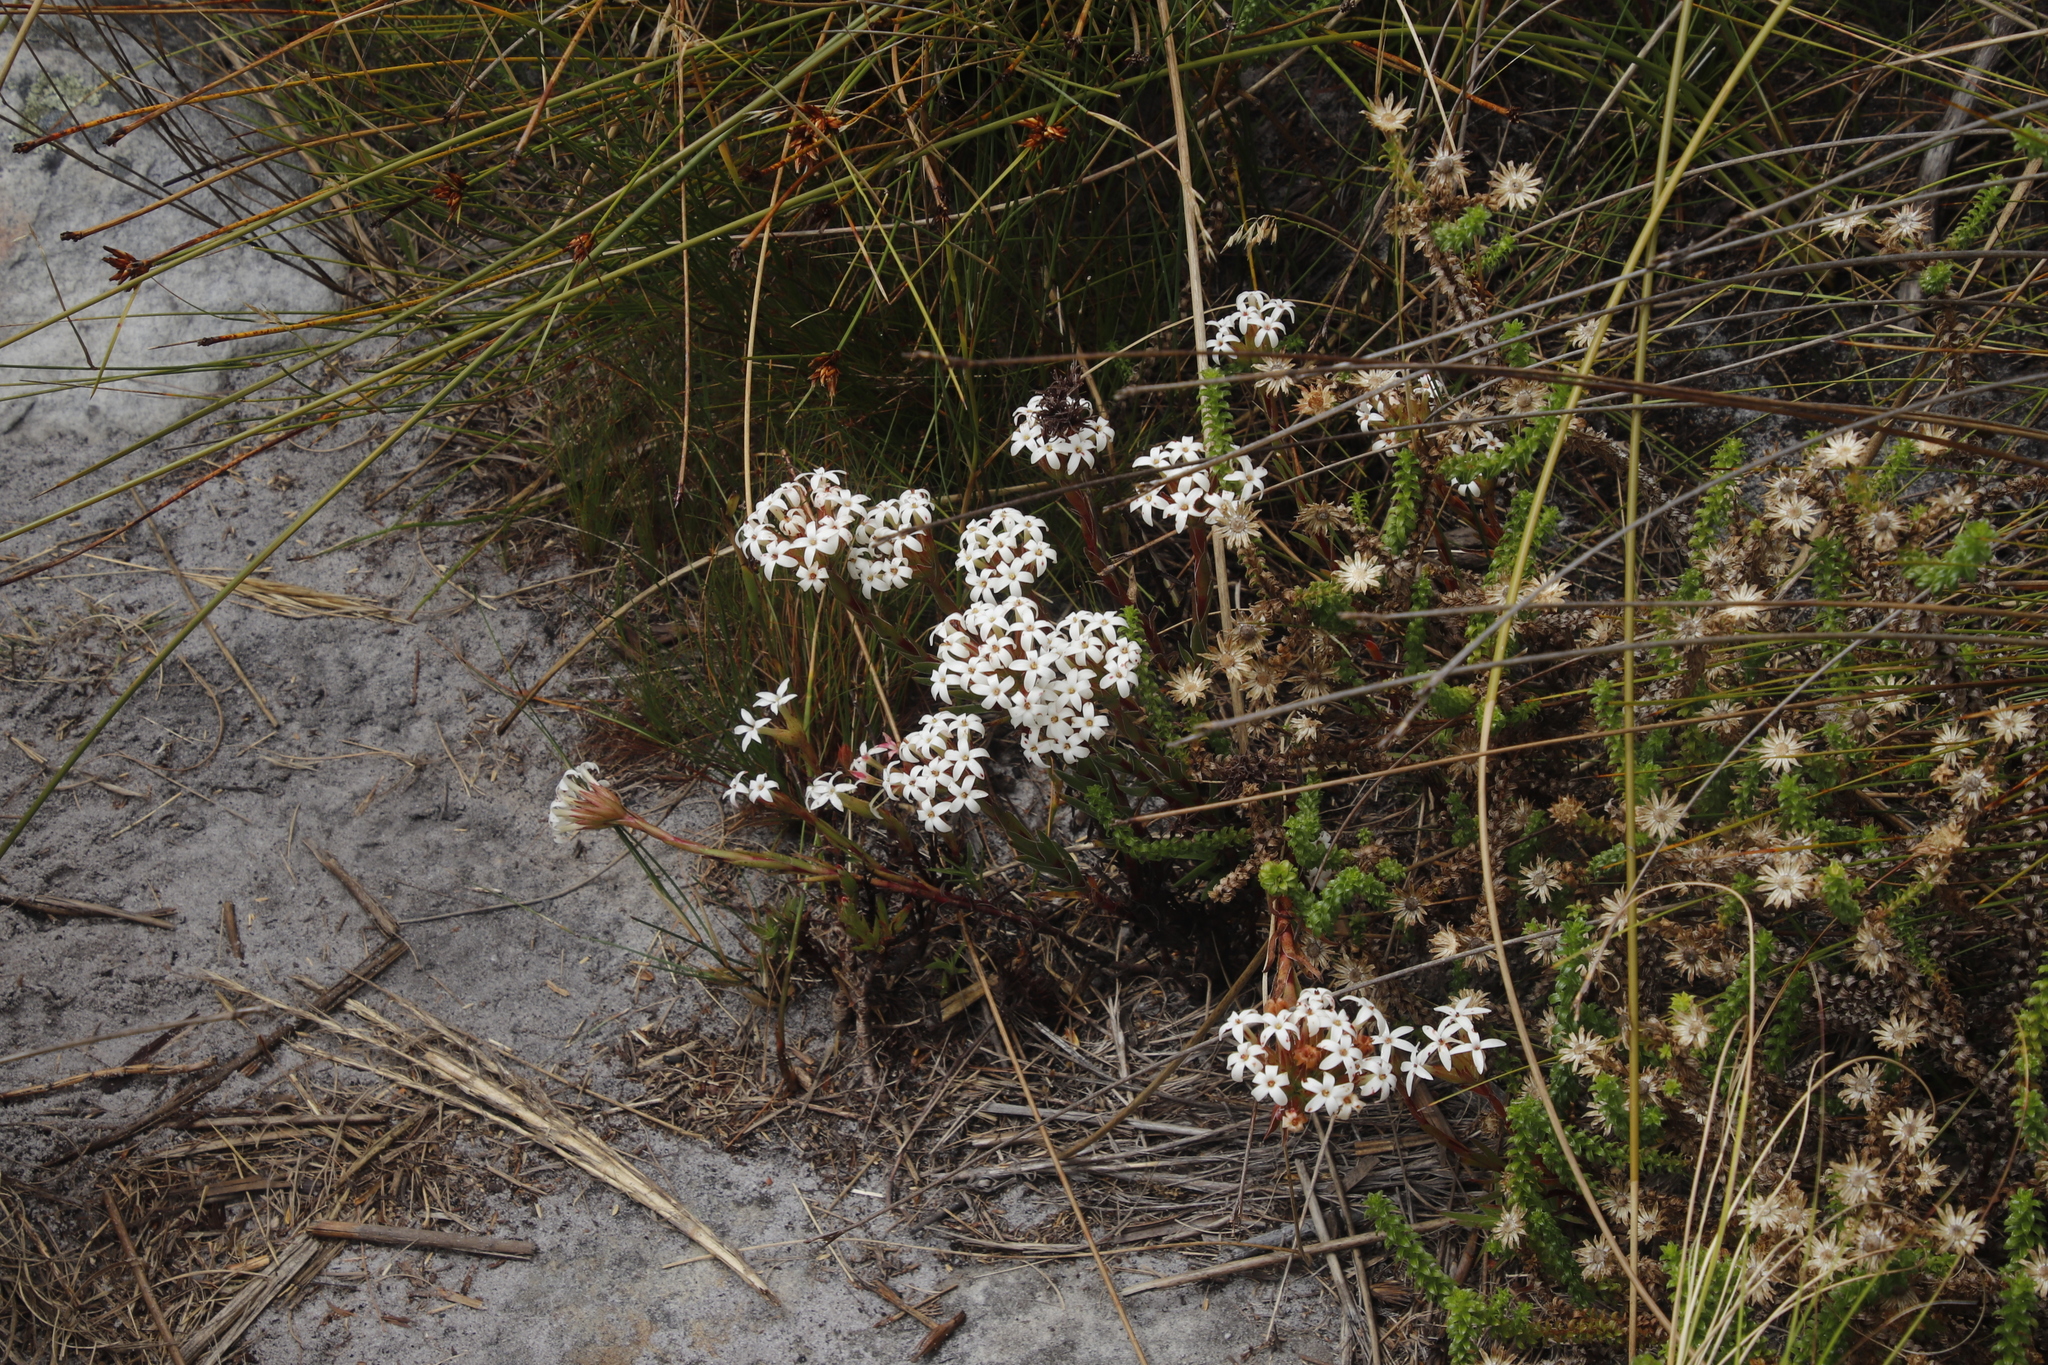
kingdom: Plantae
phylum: Tracheophyta
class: Magnoliopsida
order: Saxifragales
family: Crassulaceae
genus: Crassula
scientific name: Crassula fascicularis
